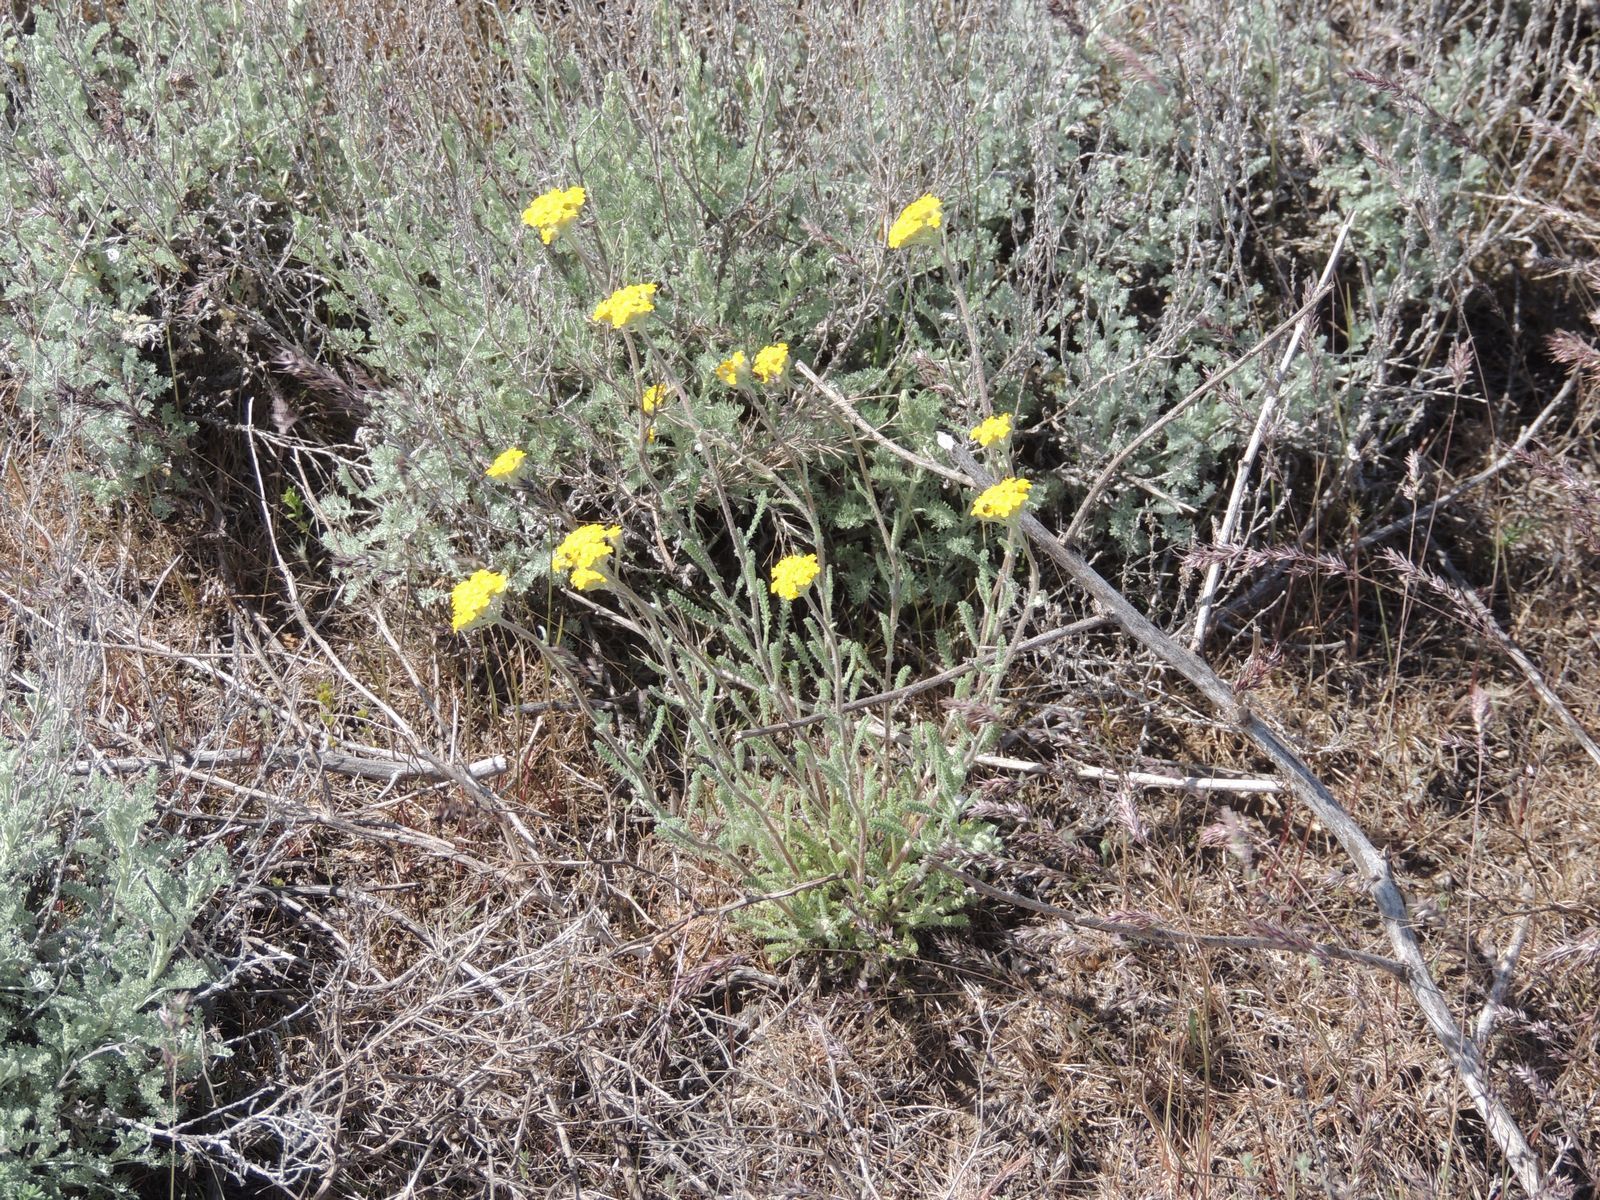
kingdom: Plantae
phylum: Tracheophyta
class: Magnoliopsida
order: Asterales
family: Asteraceae
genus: Achillea
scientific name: Achillea micrantha
